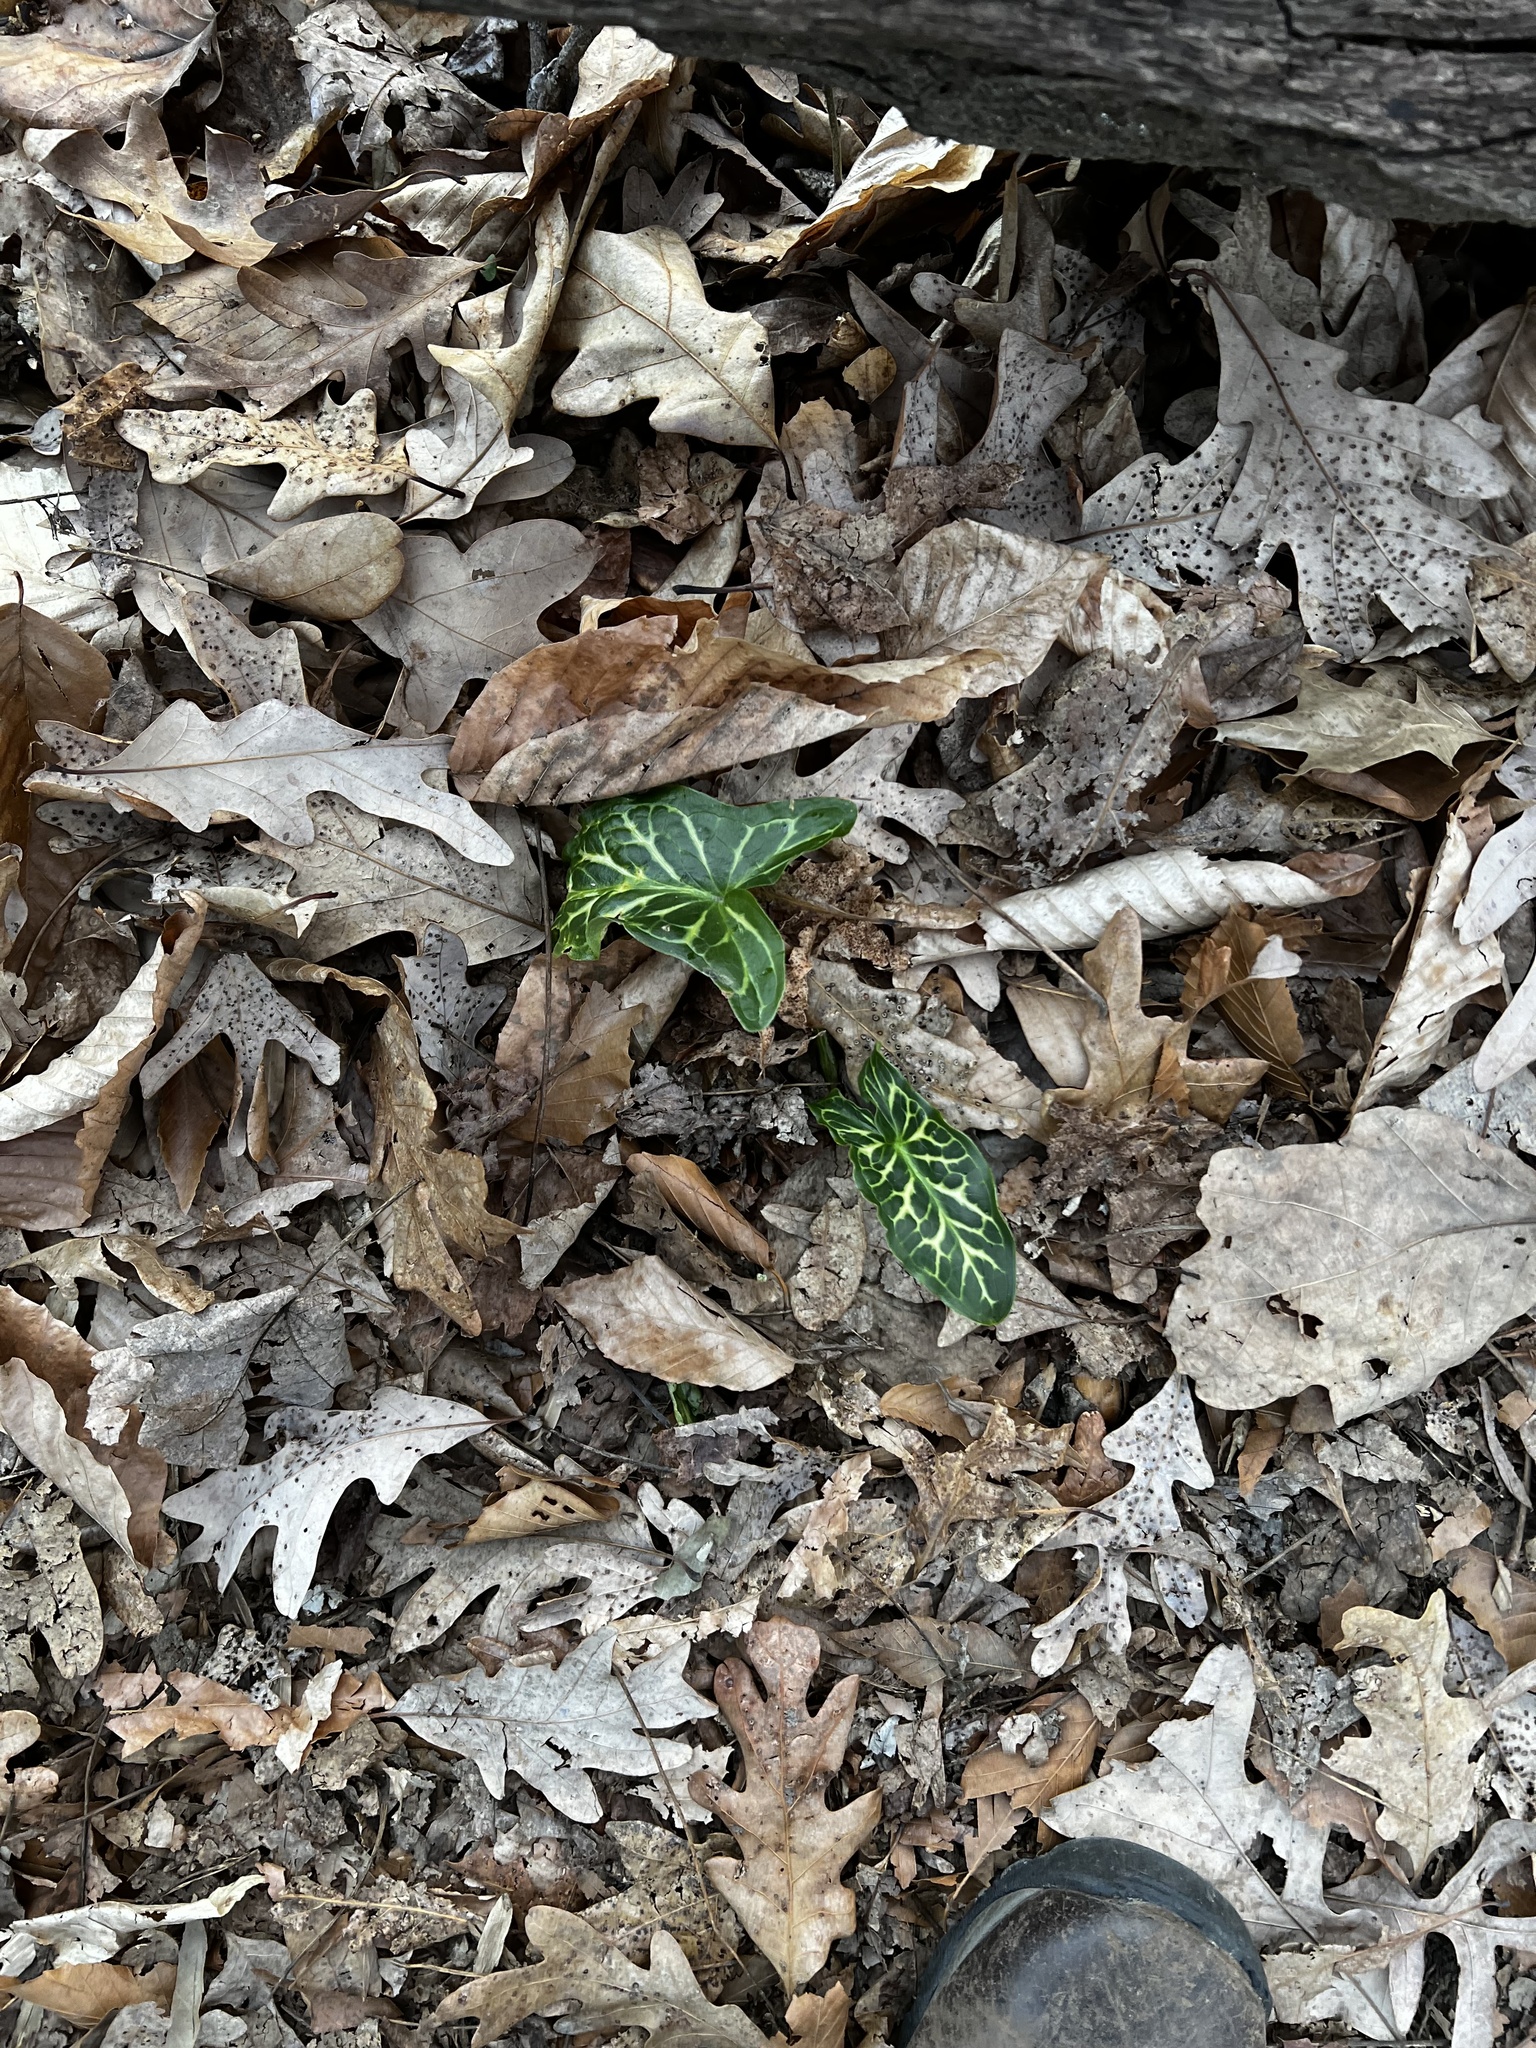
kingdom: Plantae
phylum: Tracheophyta
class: Liliopsida
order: Alismatales
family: Araceae
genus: Arum
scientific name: Arum italicum
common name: Italian lords-and-ladies
